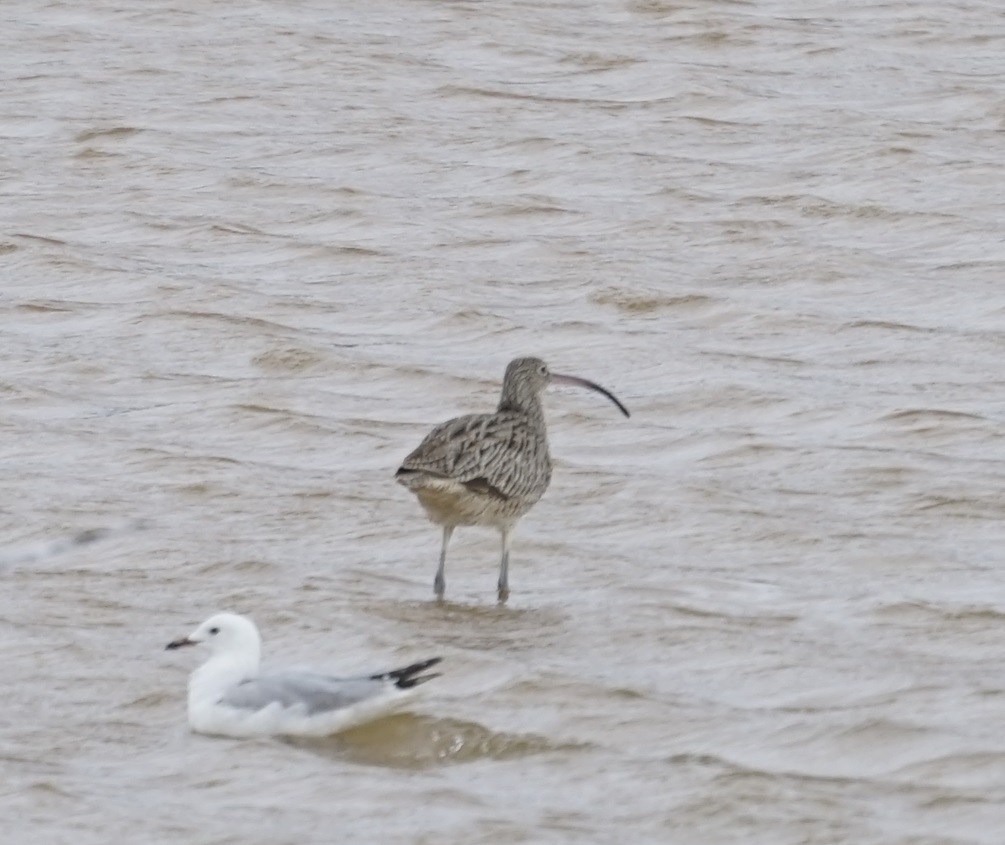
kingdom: Animalia
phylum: Chordata
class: Aves
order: Charadriiformes
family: Scolopacidae
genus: Numenius
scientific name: Numenius madagascariensis
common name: Far eastern curlew
